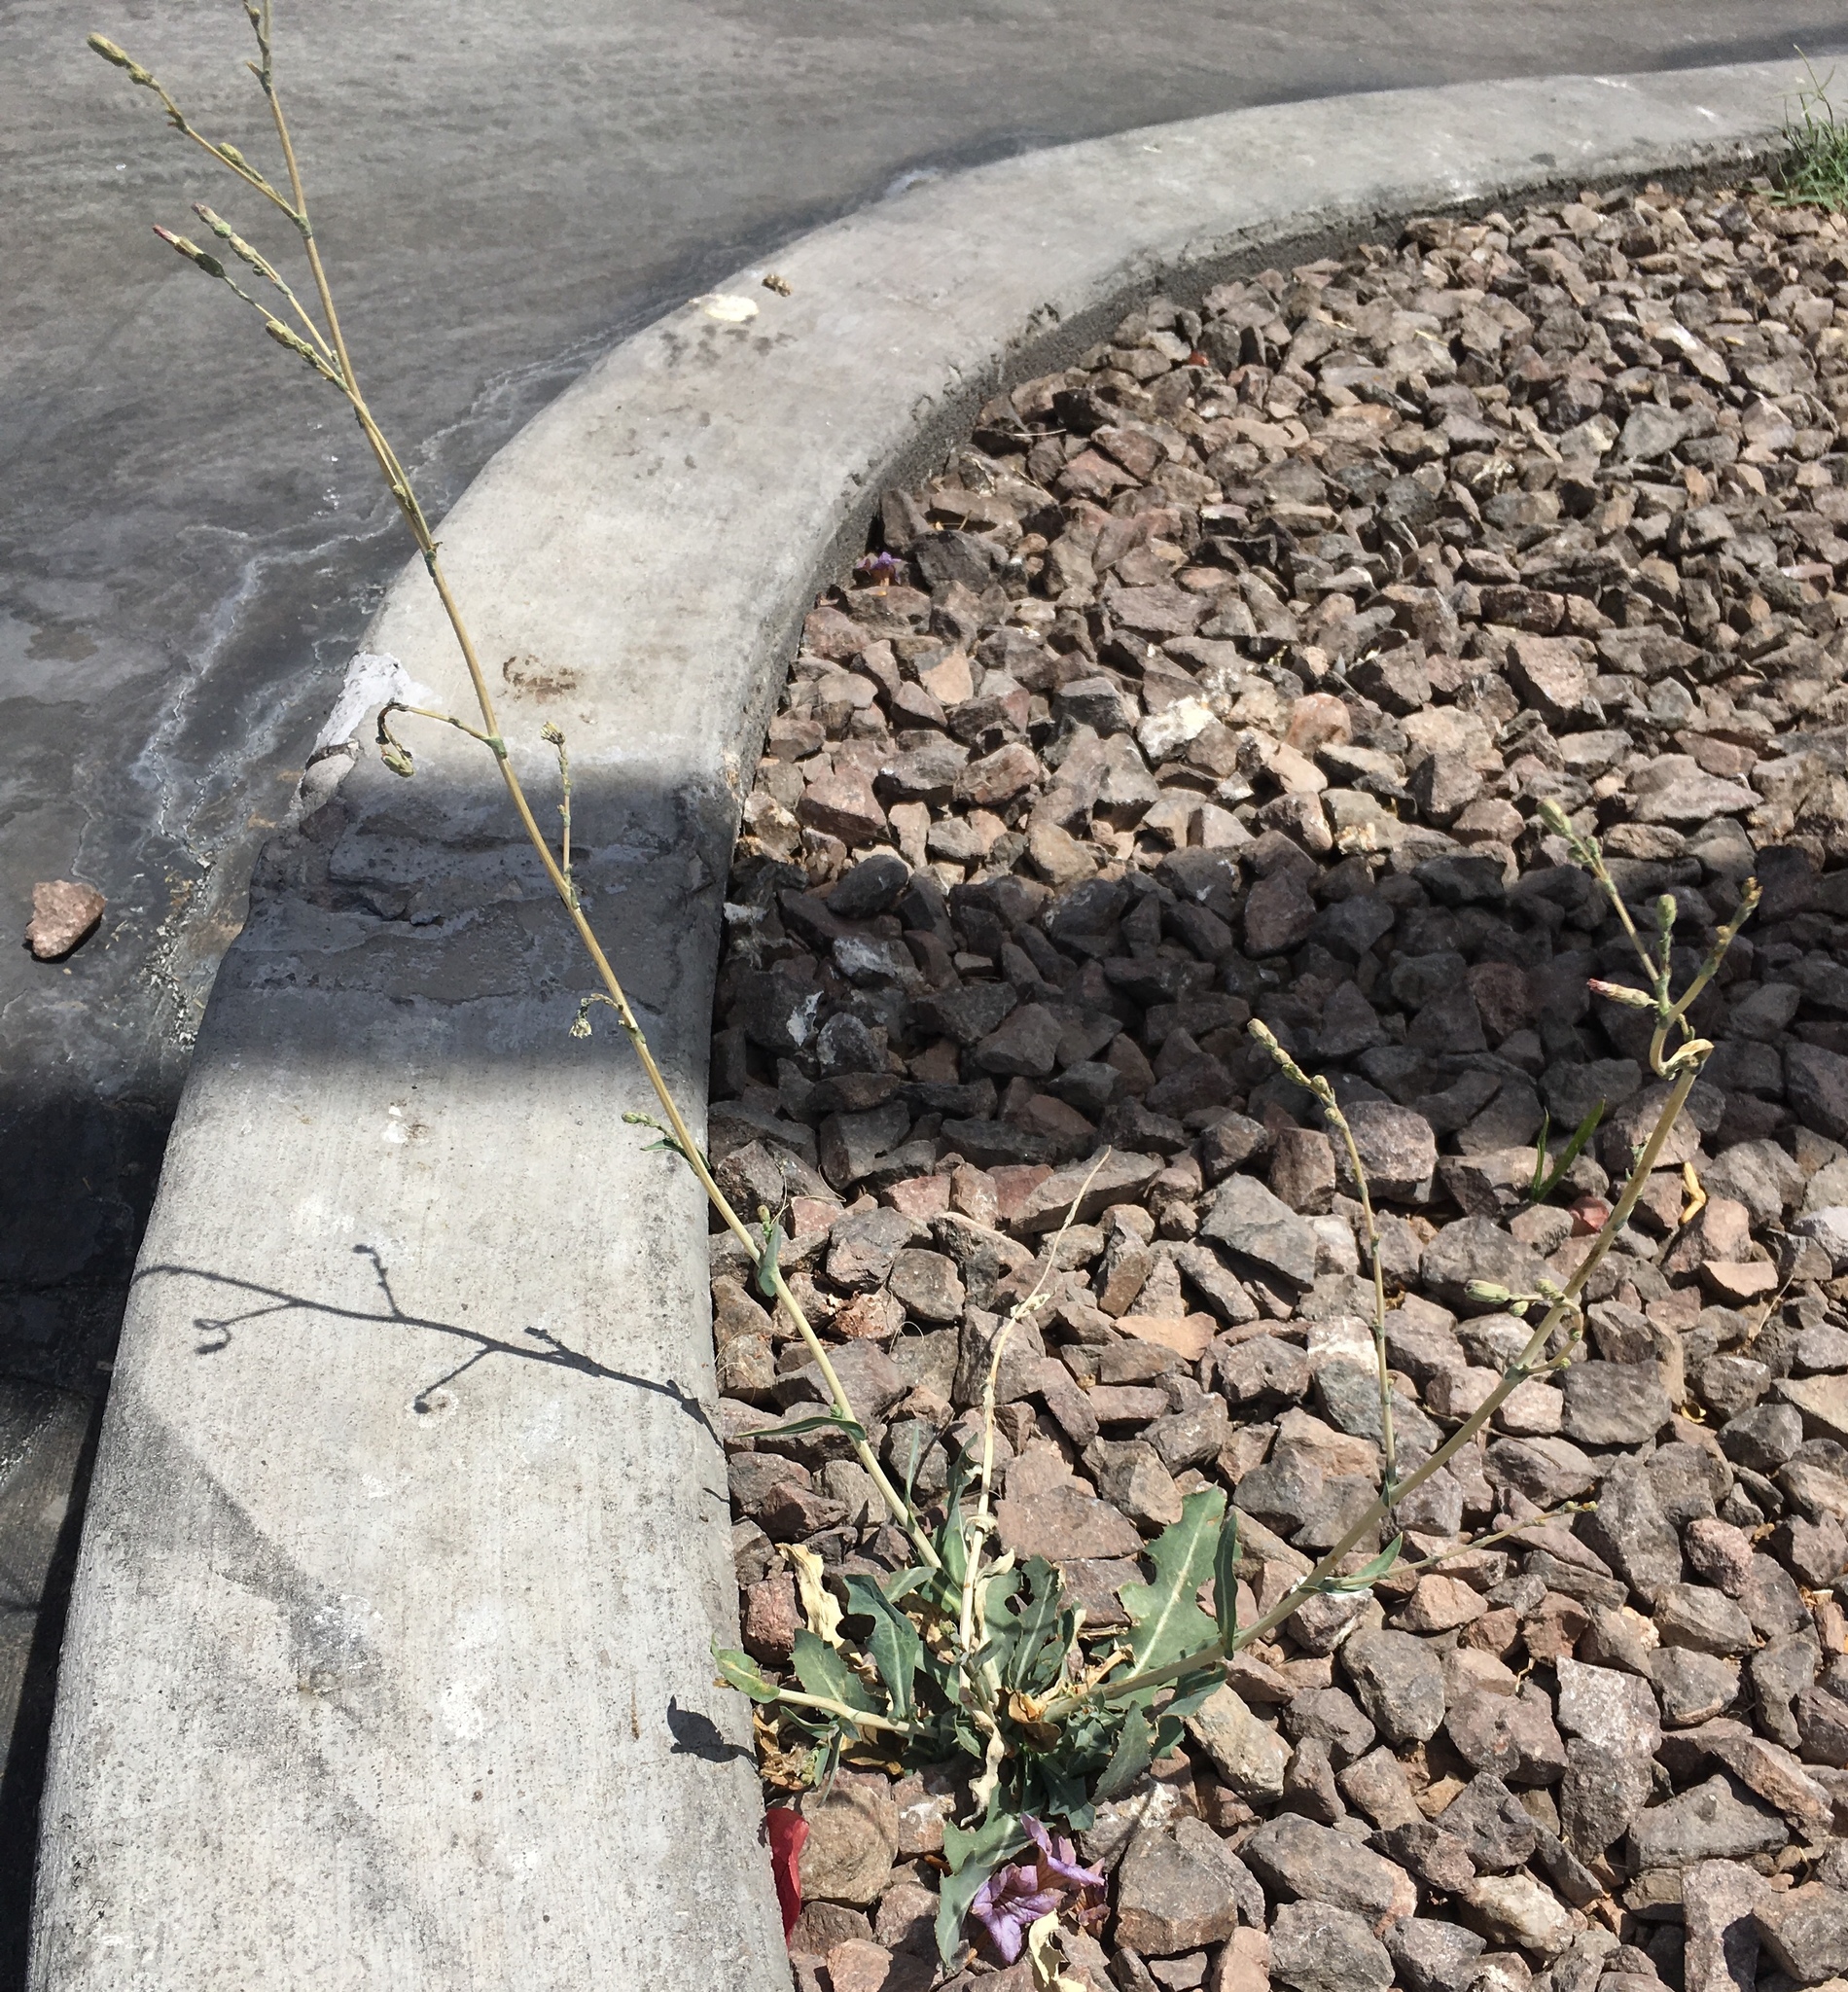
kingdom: Plantae
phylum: Tracheophyta
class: Magnoliopsida
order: Asterales
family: Asteraceae
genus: Lactuca
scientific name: Lactuca serriola
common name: Prickly lettuce
